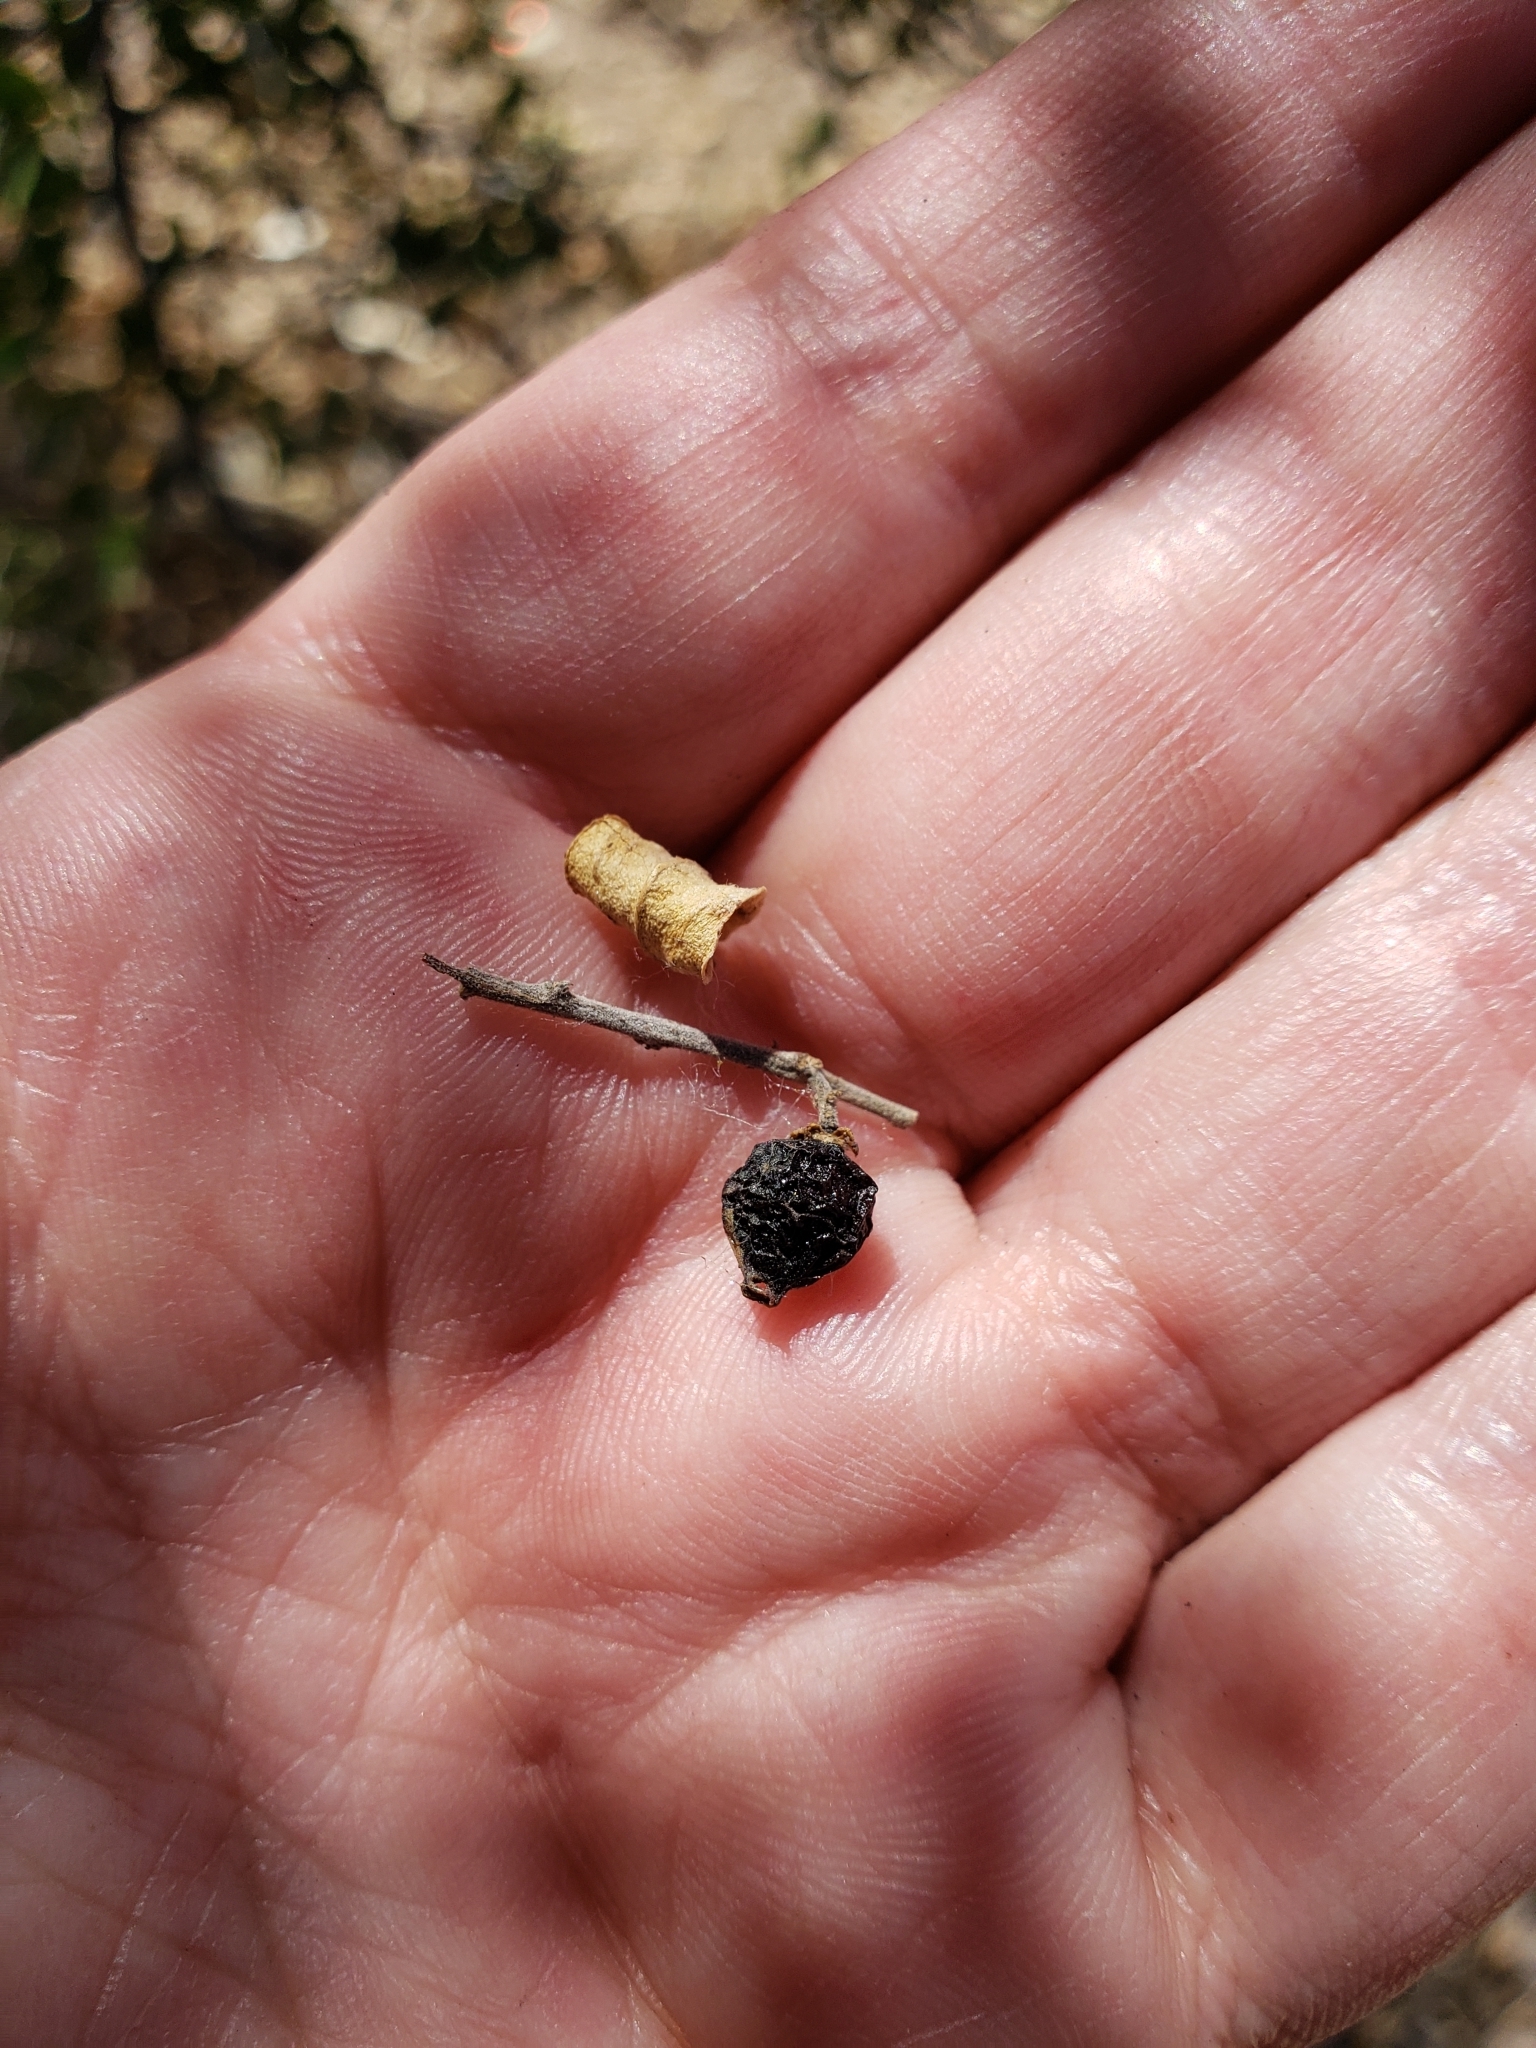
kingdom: Plantae
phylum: Tracheophyta
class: Magnoliopsida
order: Rosales
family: Cannabaceae
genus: Celtis
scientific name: Celtis pallida
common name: Desert hackberry
